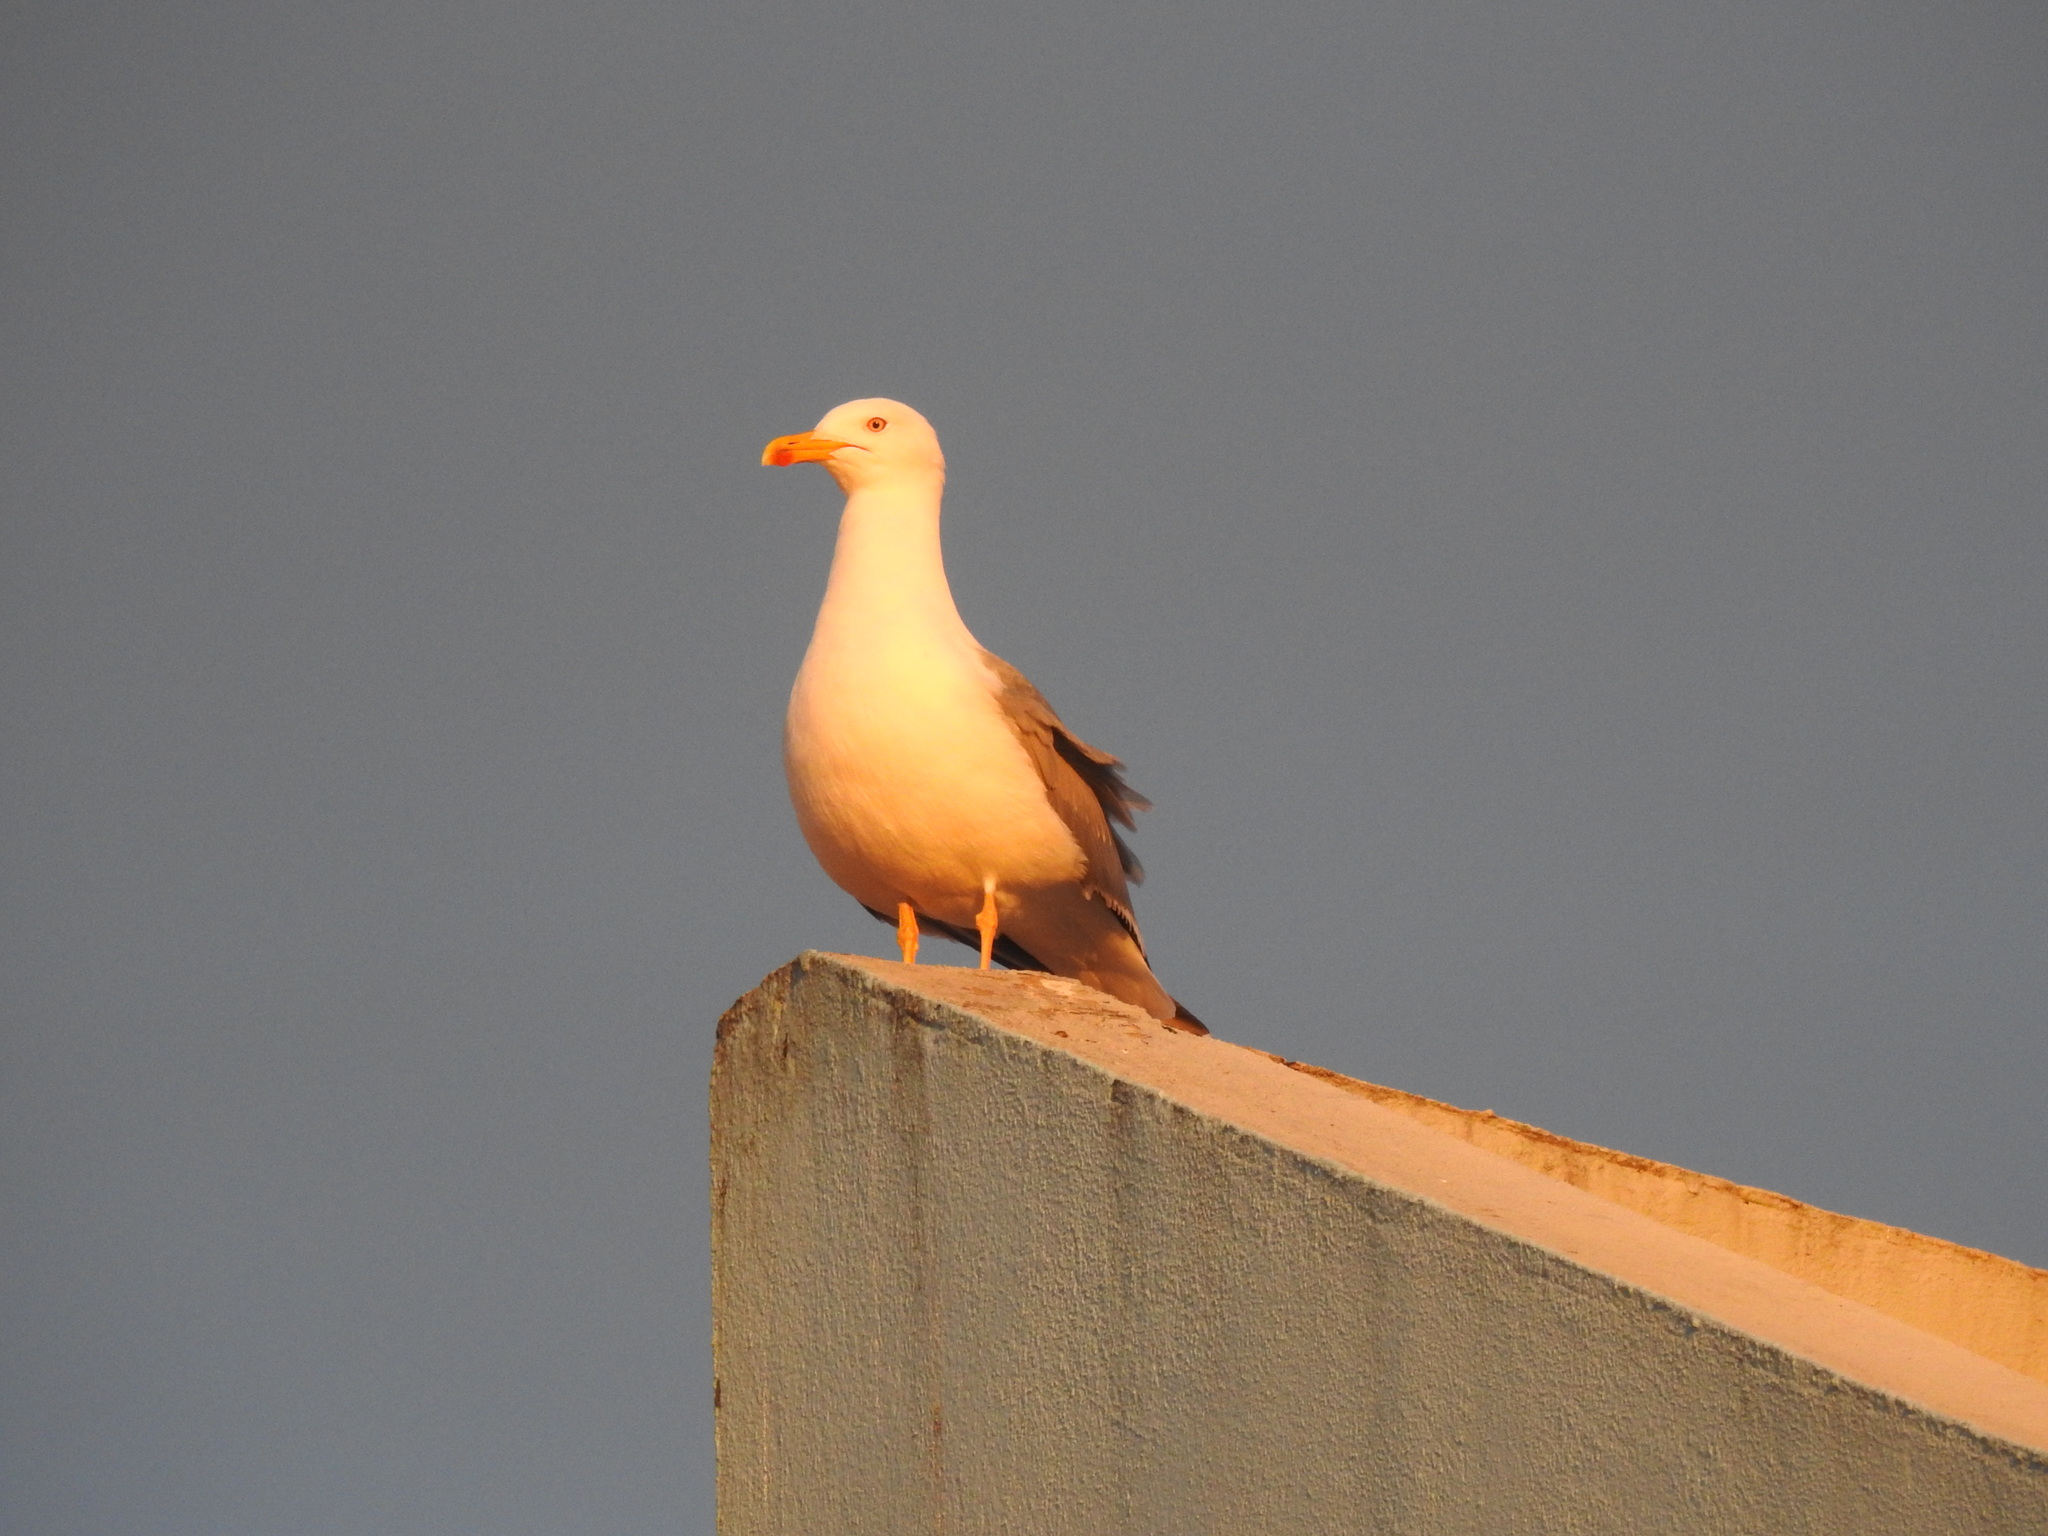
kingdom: Animalia
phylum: Chordata
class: Aves
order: Charadriiformes
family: Laridae
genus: Larus
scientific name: Larus michahellis
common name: Yellow-legged gull
